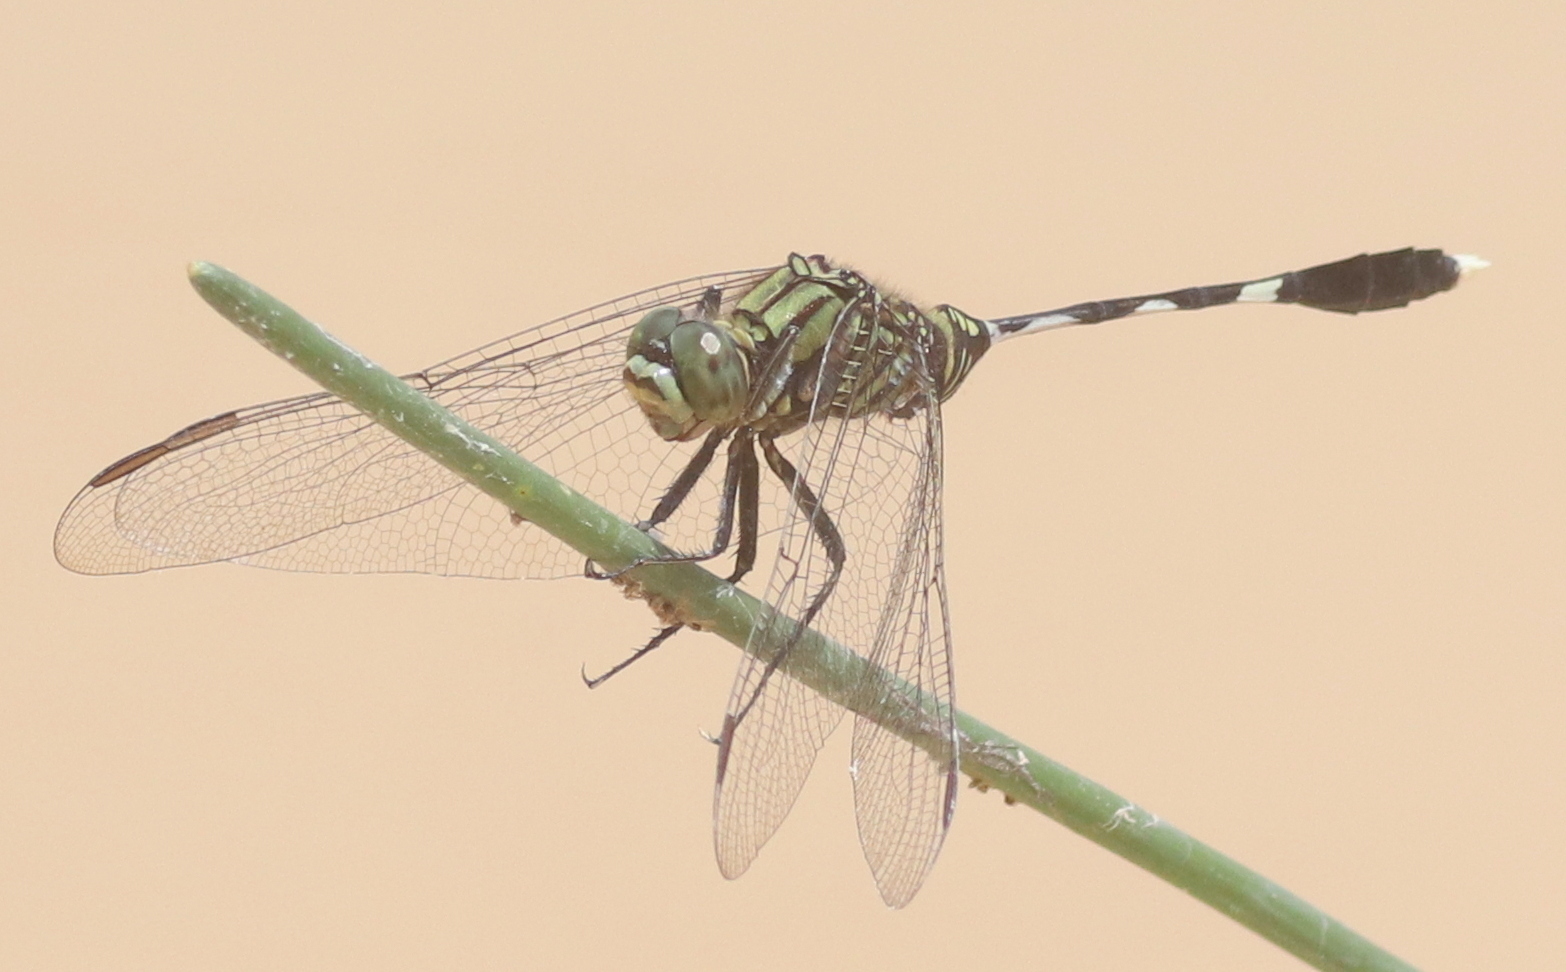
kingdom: Animalia
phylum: Arthropoda
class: Insecta
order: Odonata
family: Libellulidae
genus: Orthetrum
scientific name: Orthetrum sabina
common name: Slender skimmer
